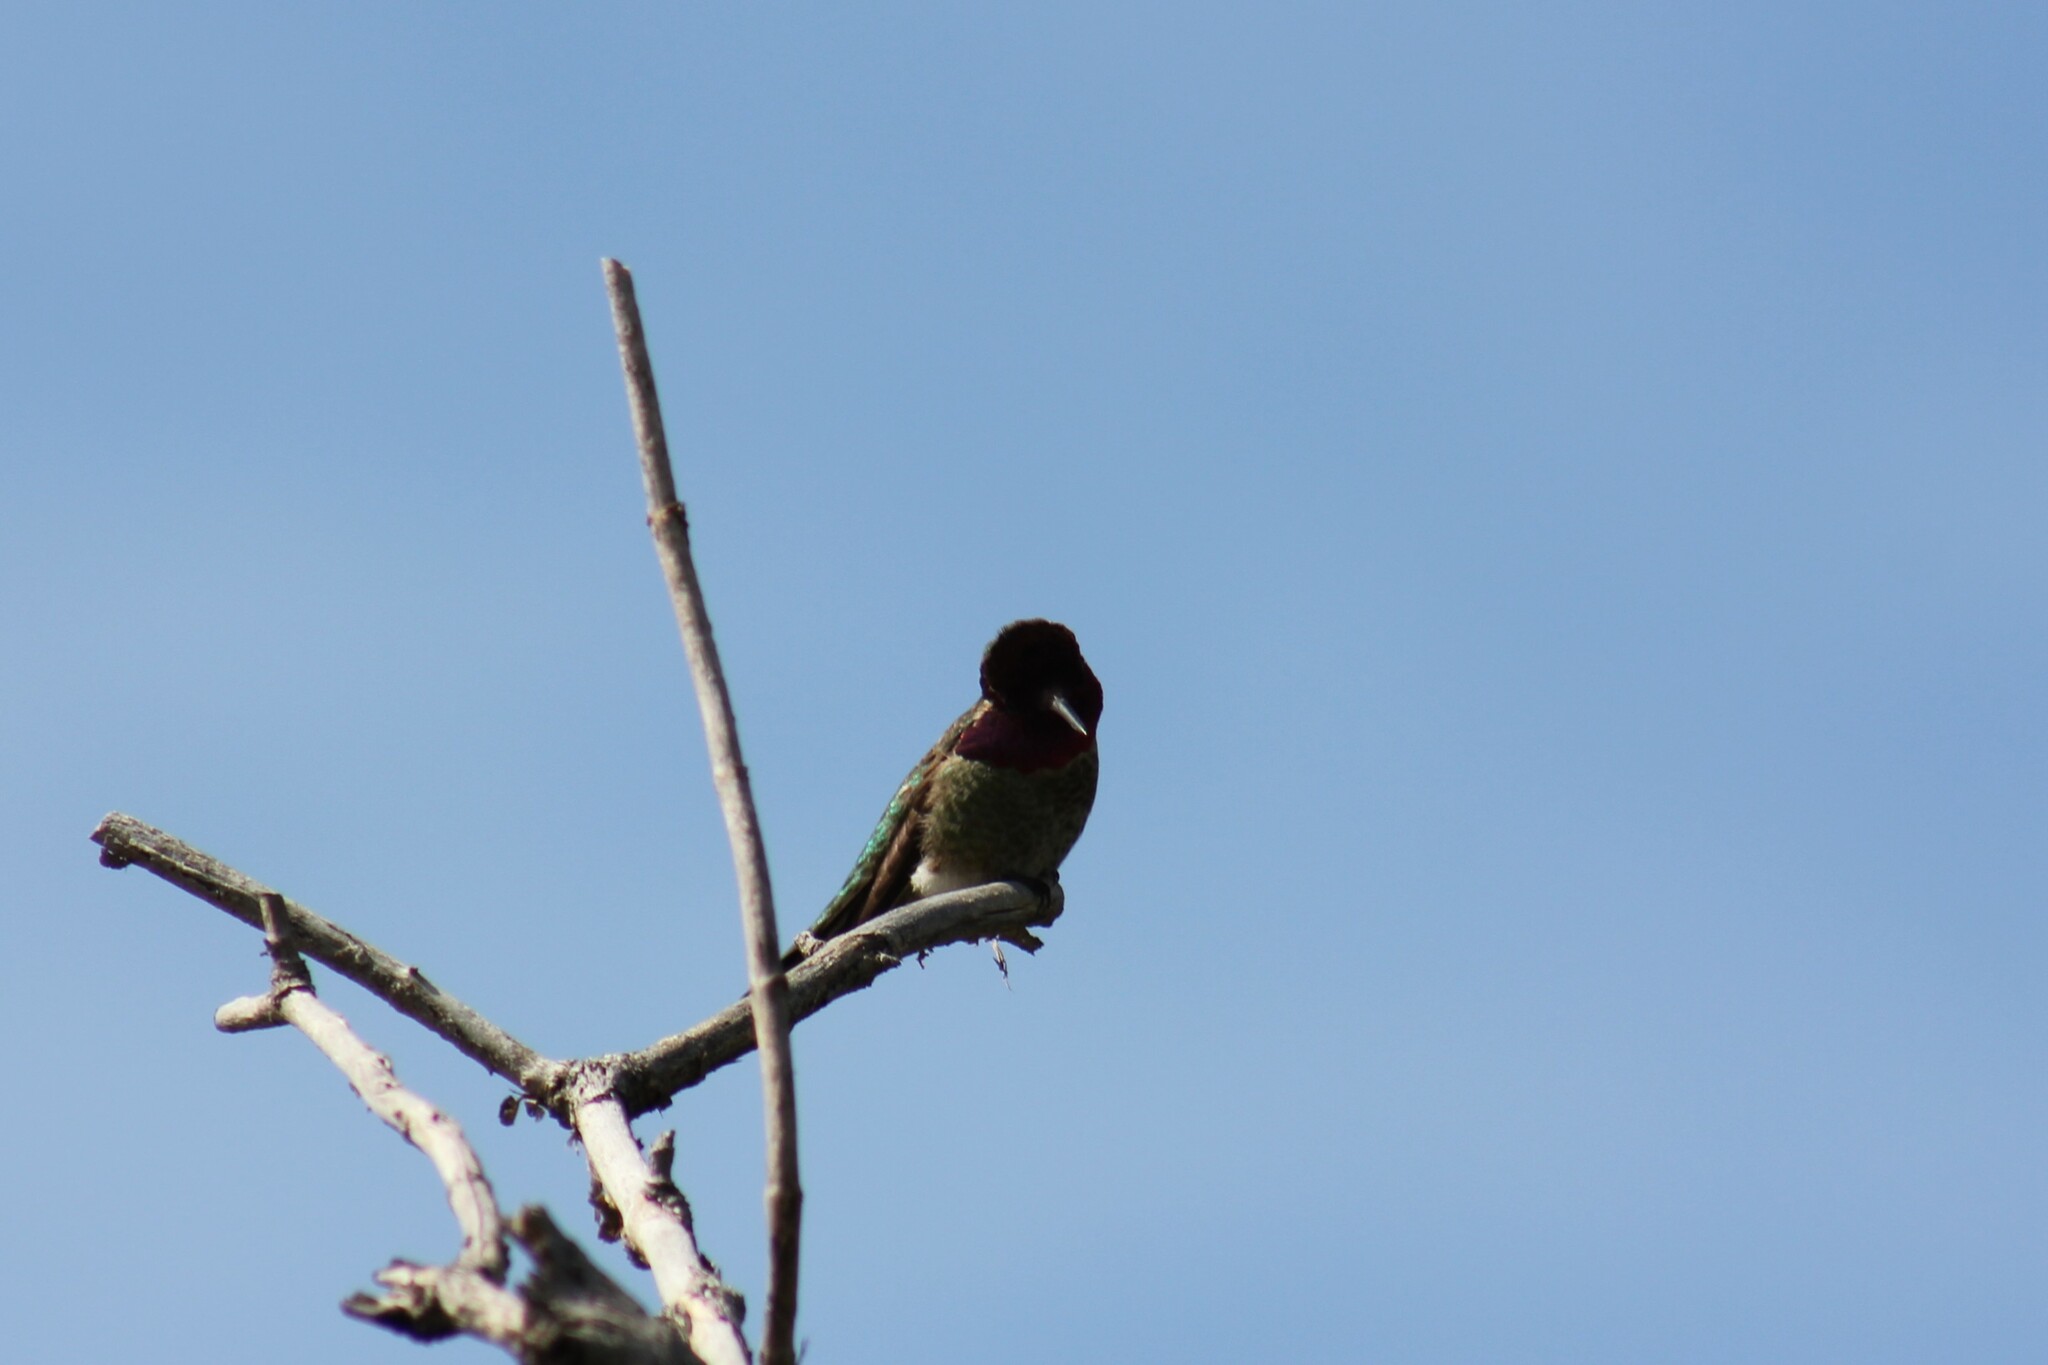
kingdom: Animalia
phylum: Chordata
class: Aves
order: Apodiformes
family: Trochilidae
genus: Calypte
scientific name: Calypte anna
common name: Anna's hummingbird
